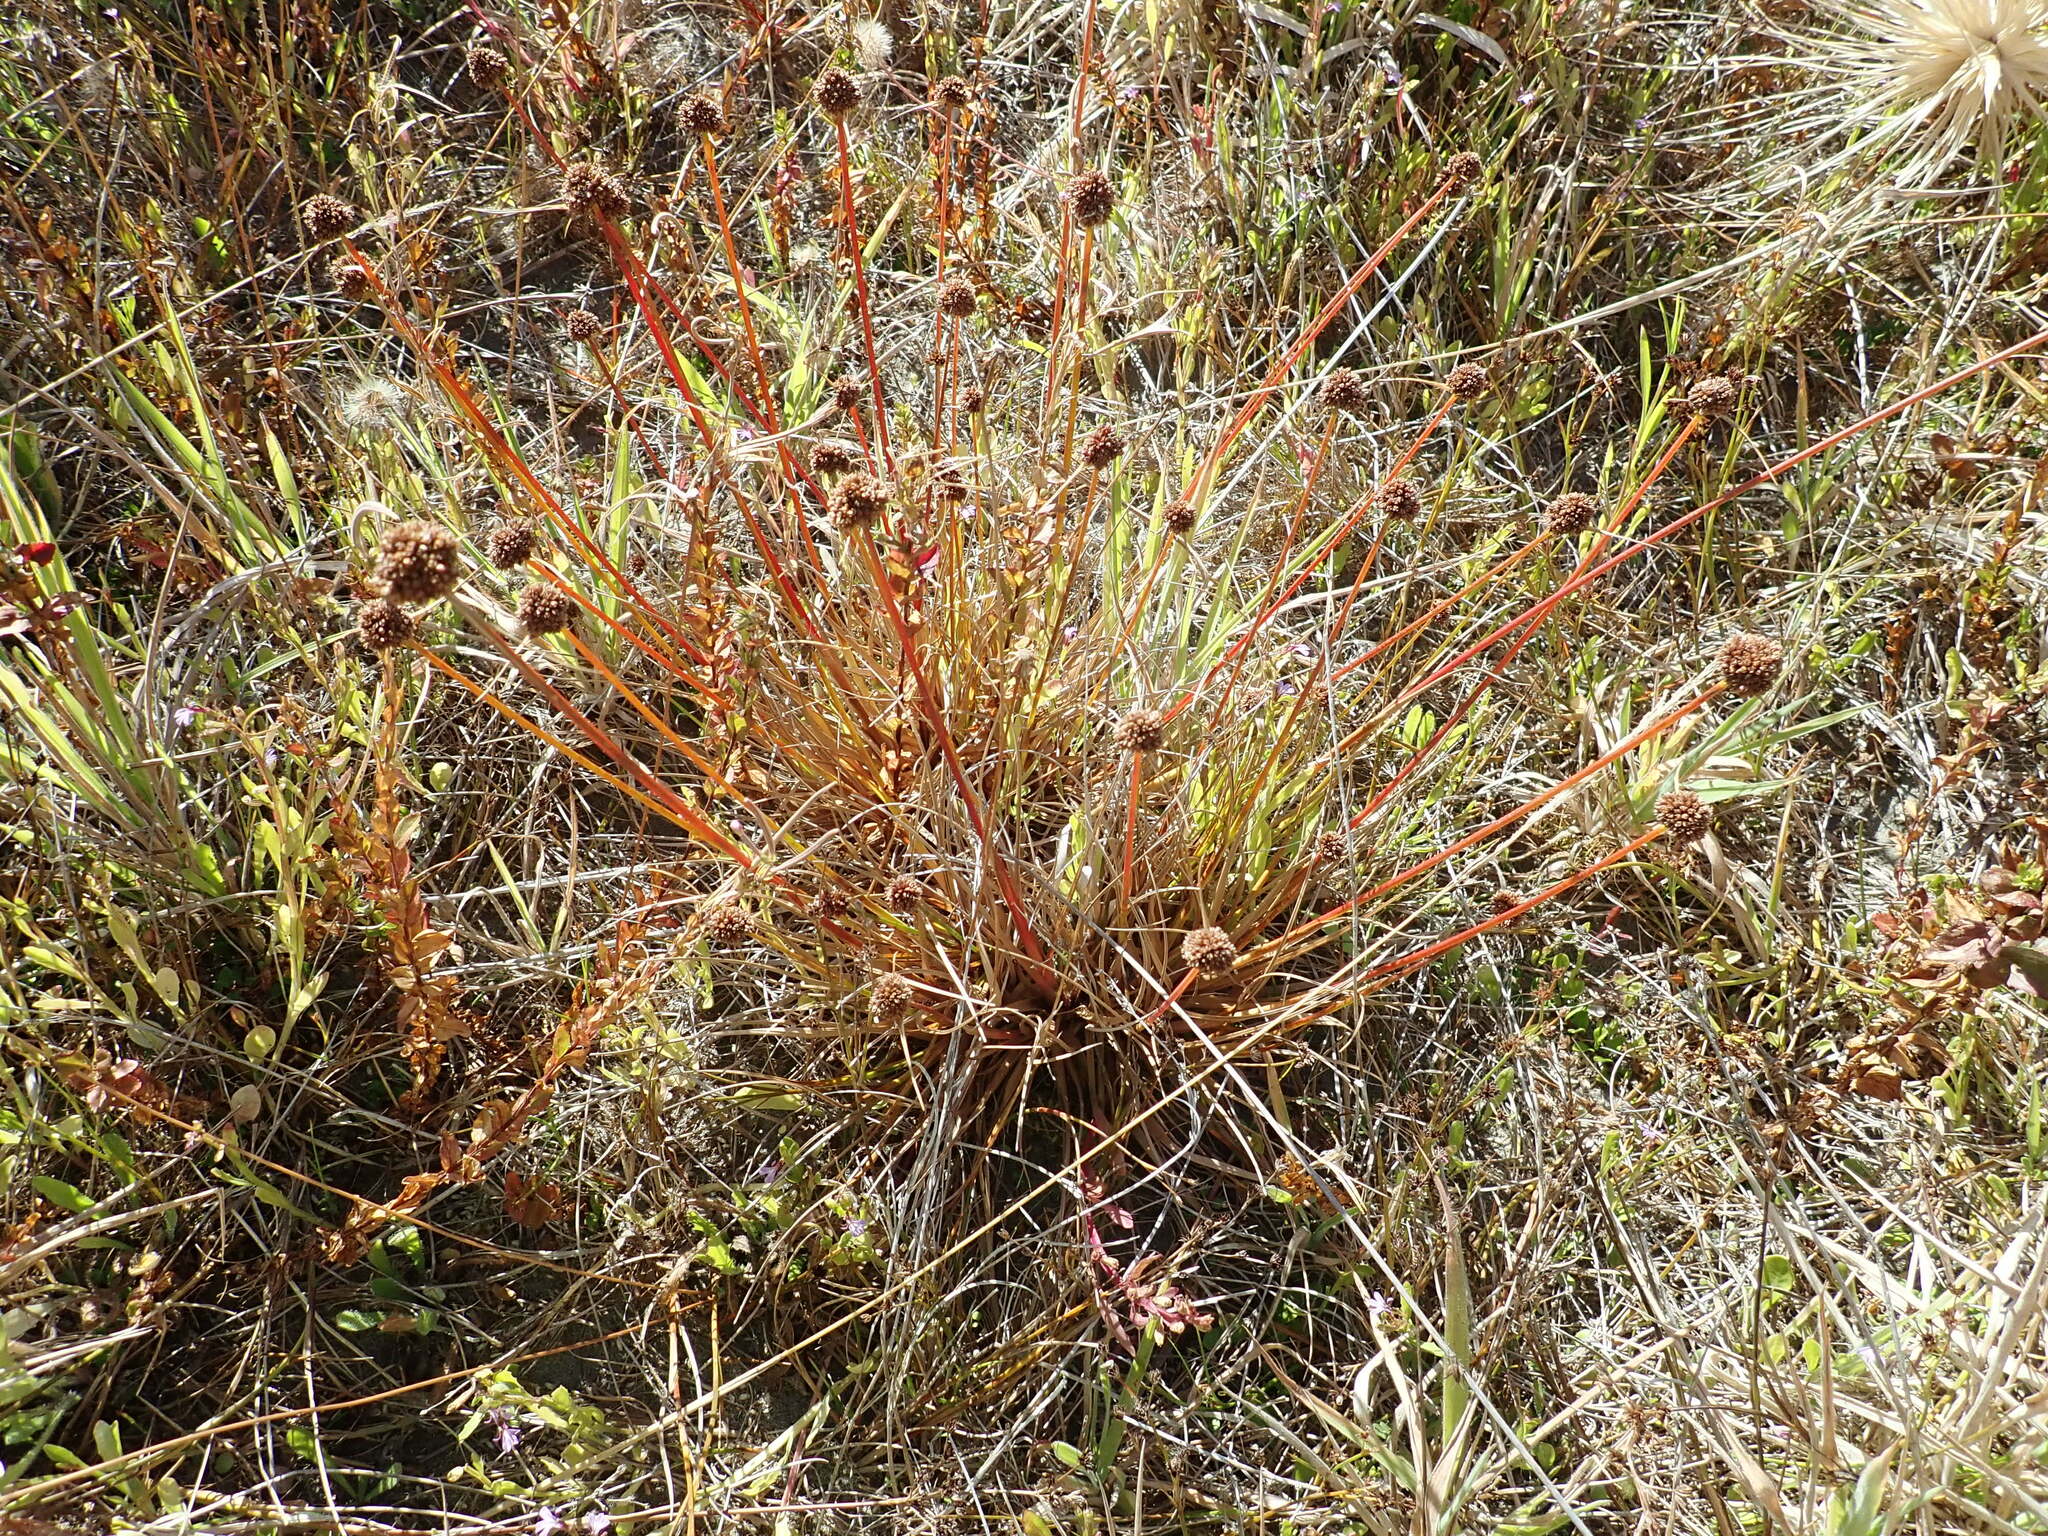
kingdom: Plantae
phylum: Tracheophyta
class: Liliopsida
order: Poales
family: Juncaceae
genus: Juncus
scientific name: Juncus caespiticius
